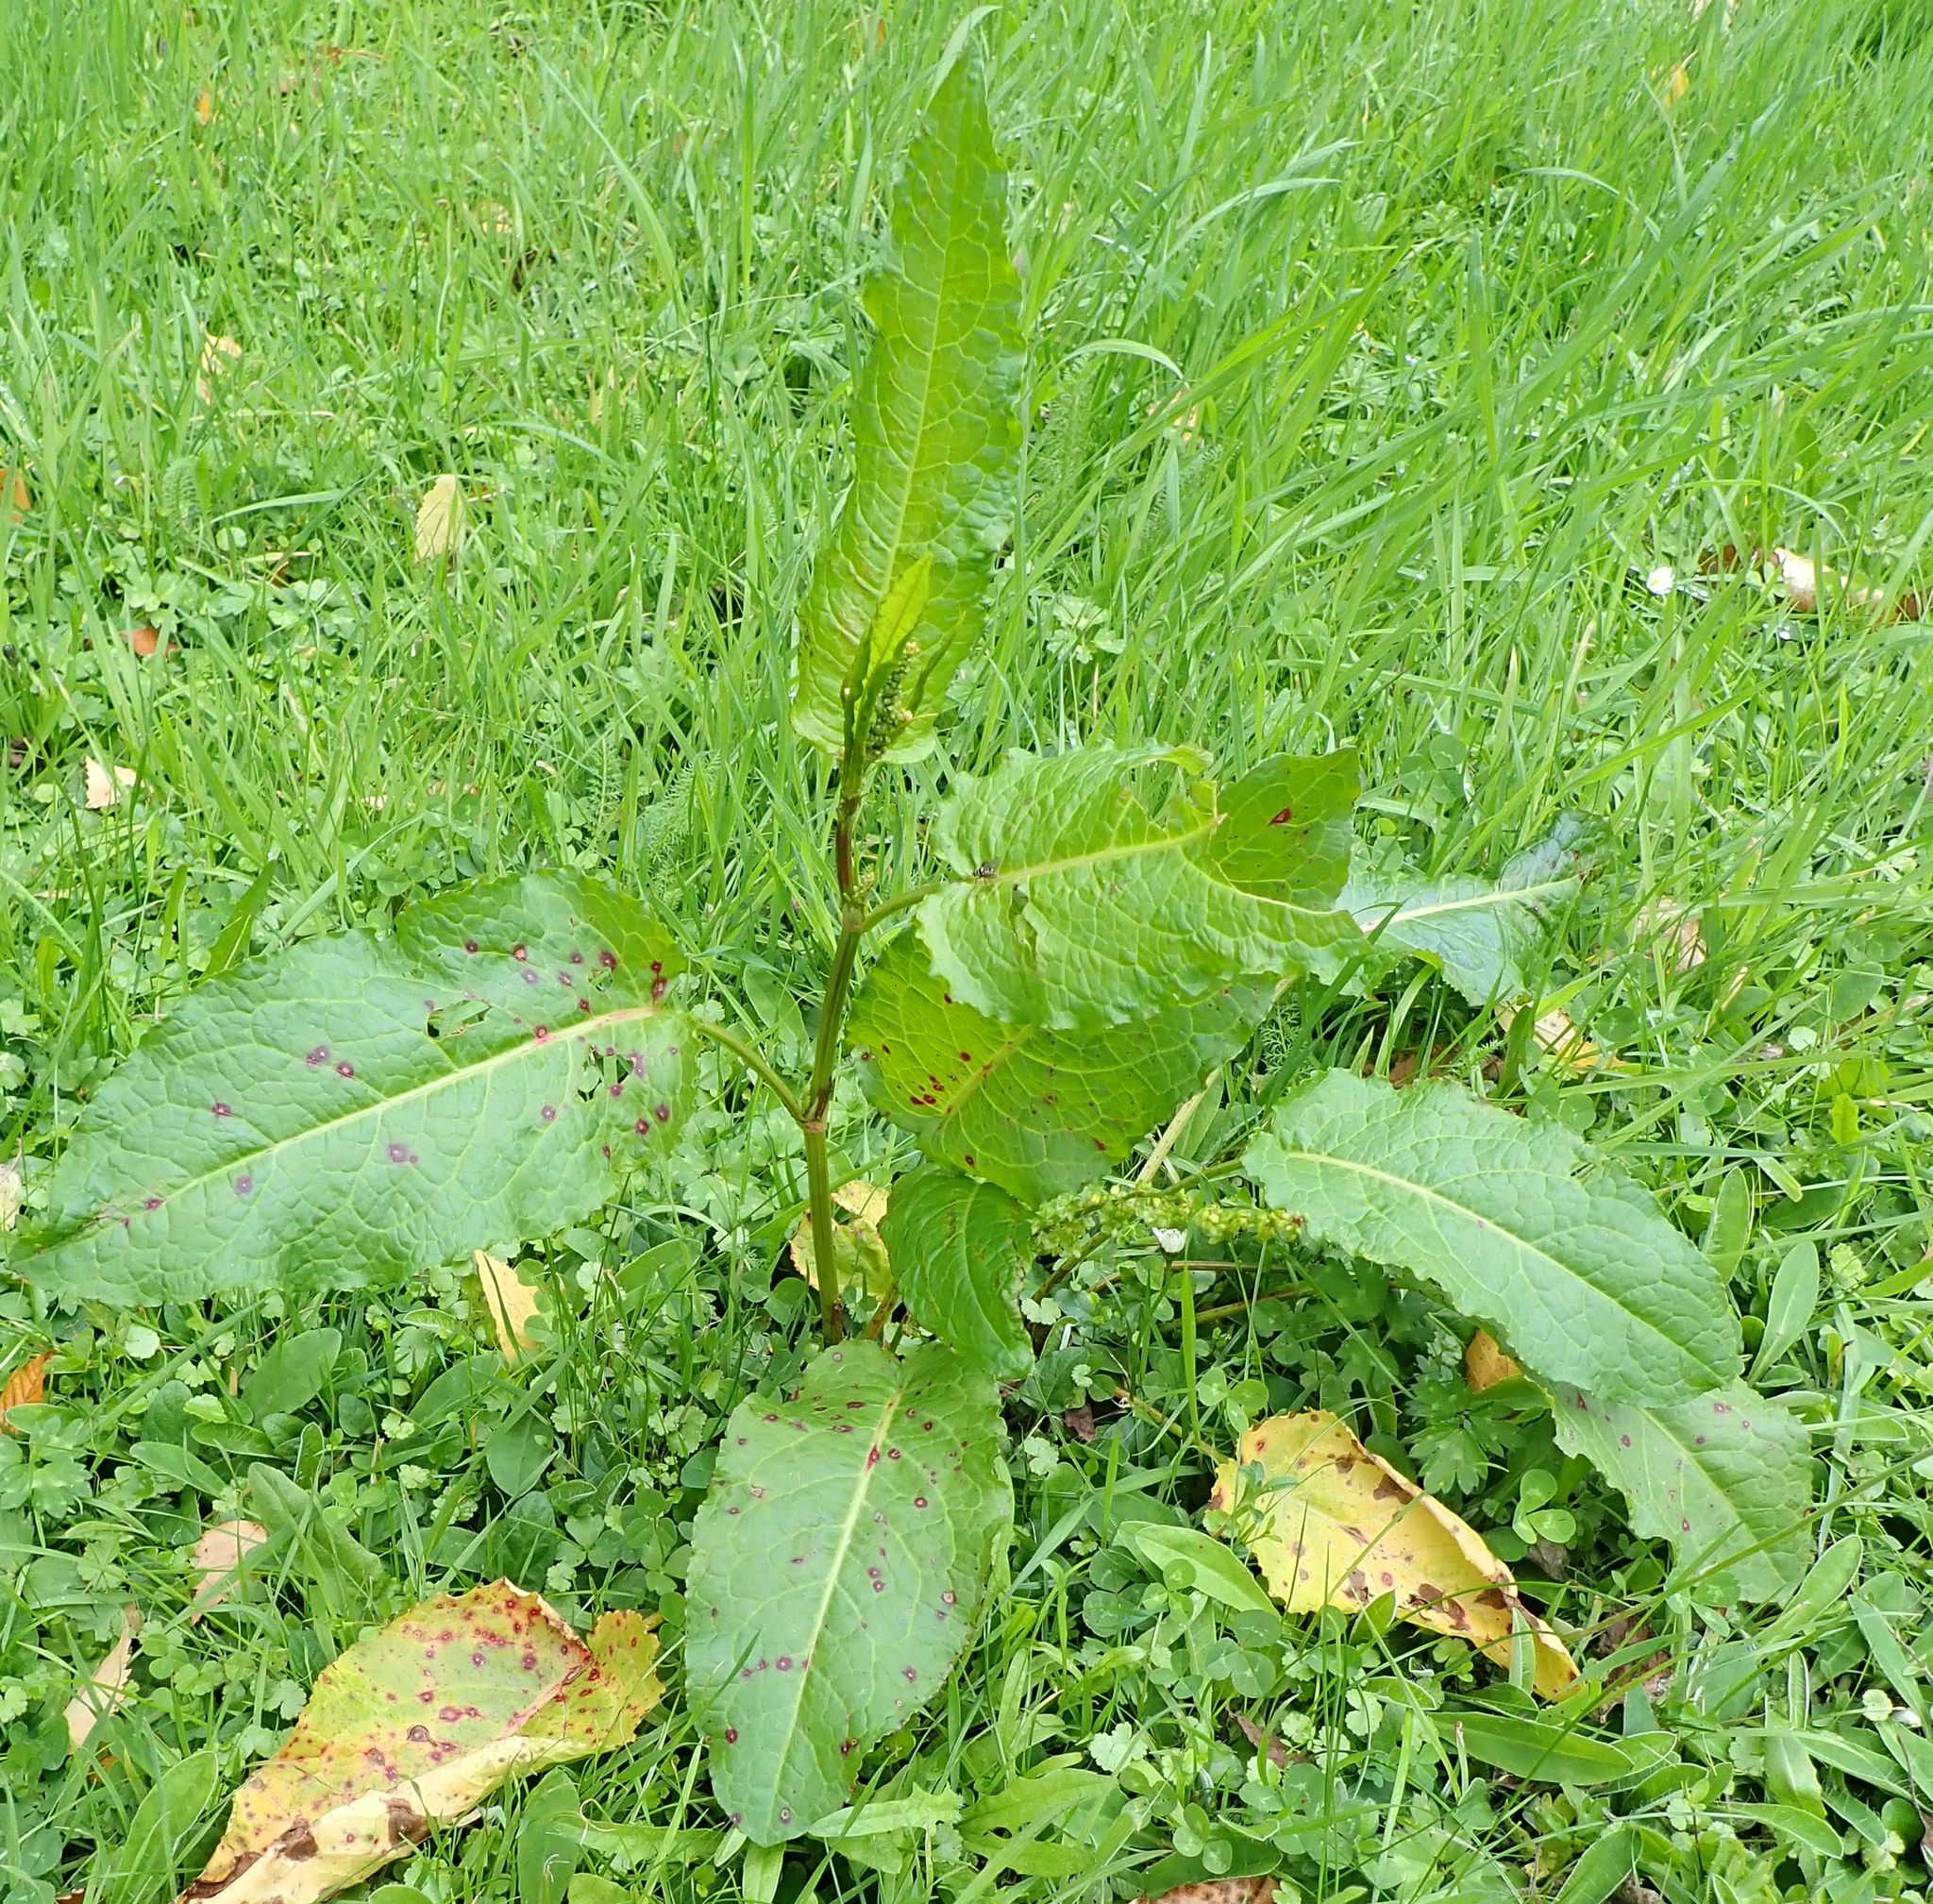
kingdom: Plantae
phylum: Tracheophyta
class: Magnoliopsida
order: Caryophyllales
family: Polygonaceae
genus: Rumex
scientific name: Rumex obtusifolius
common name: Bitter dock
